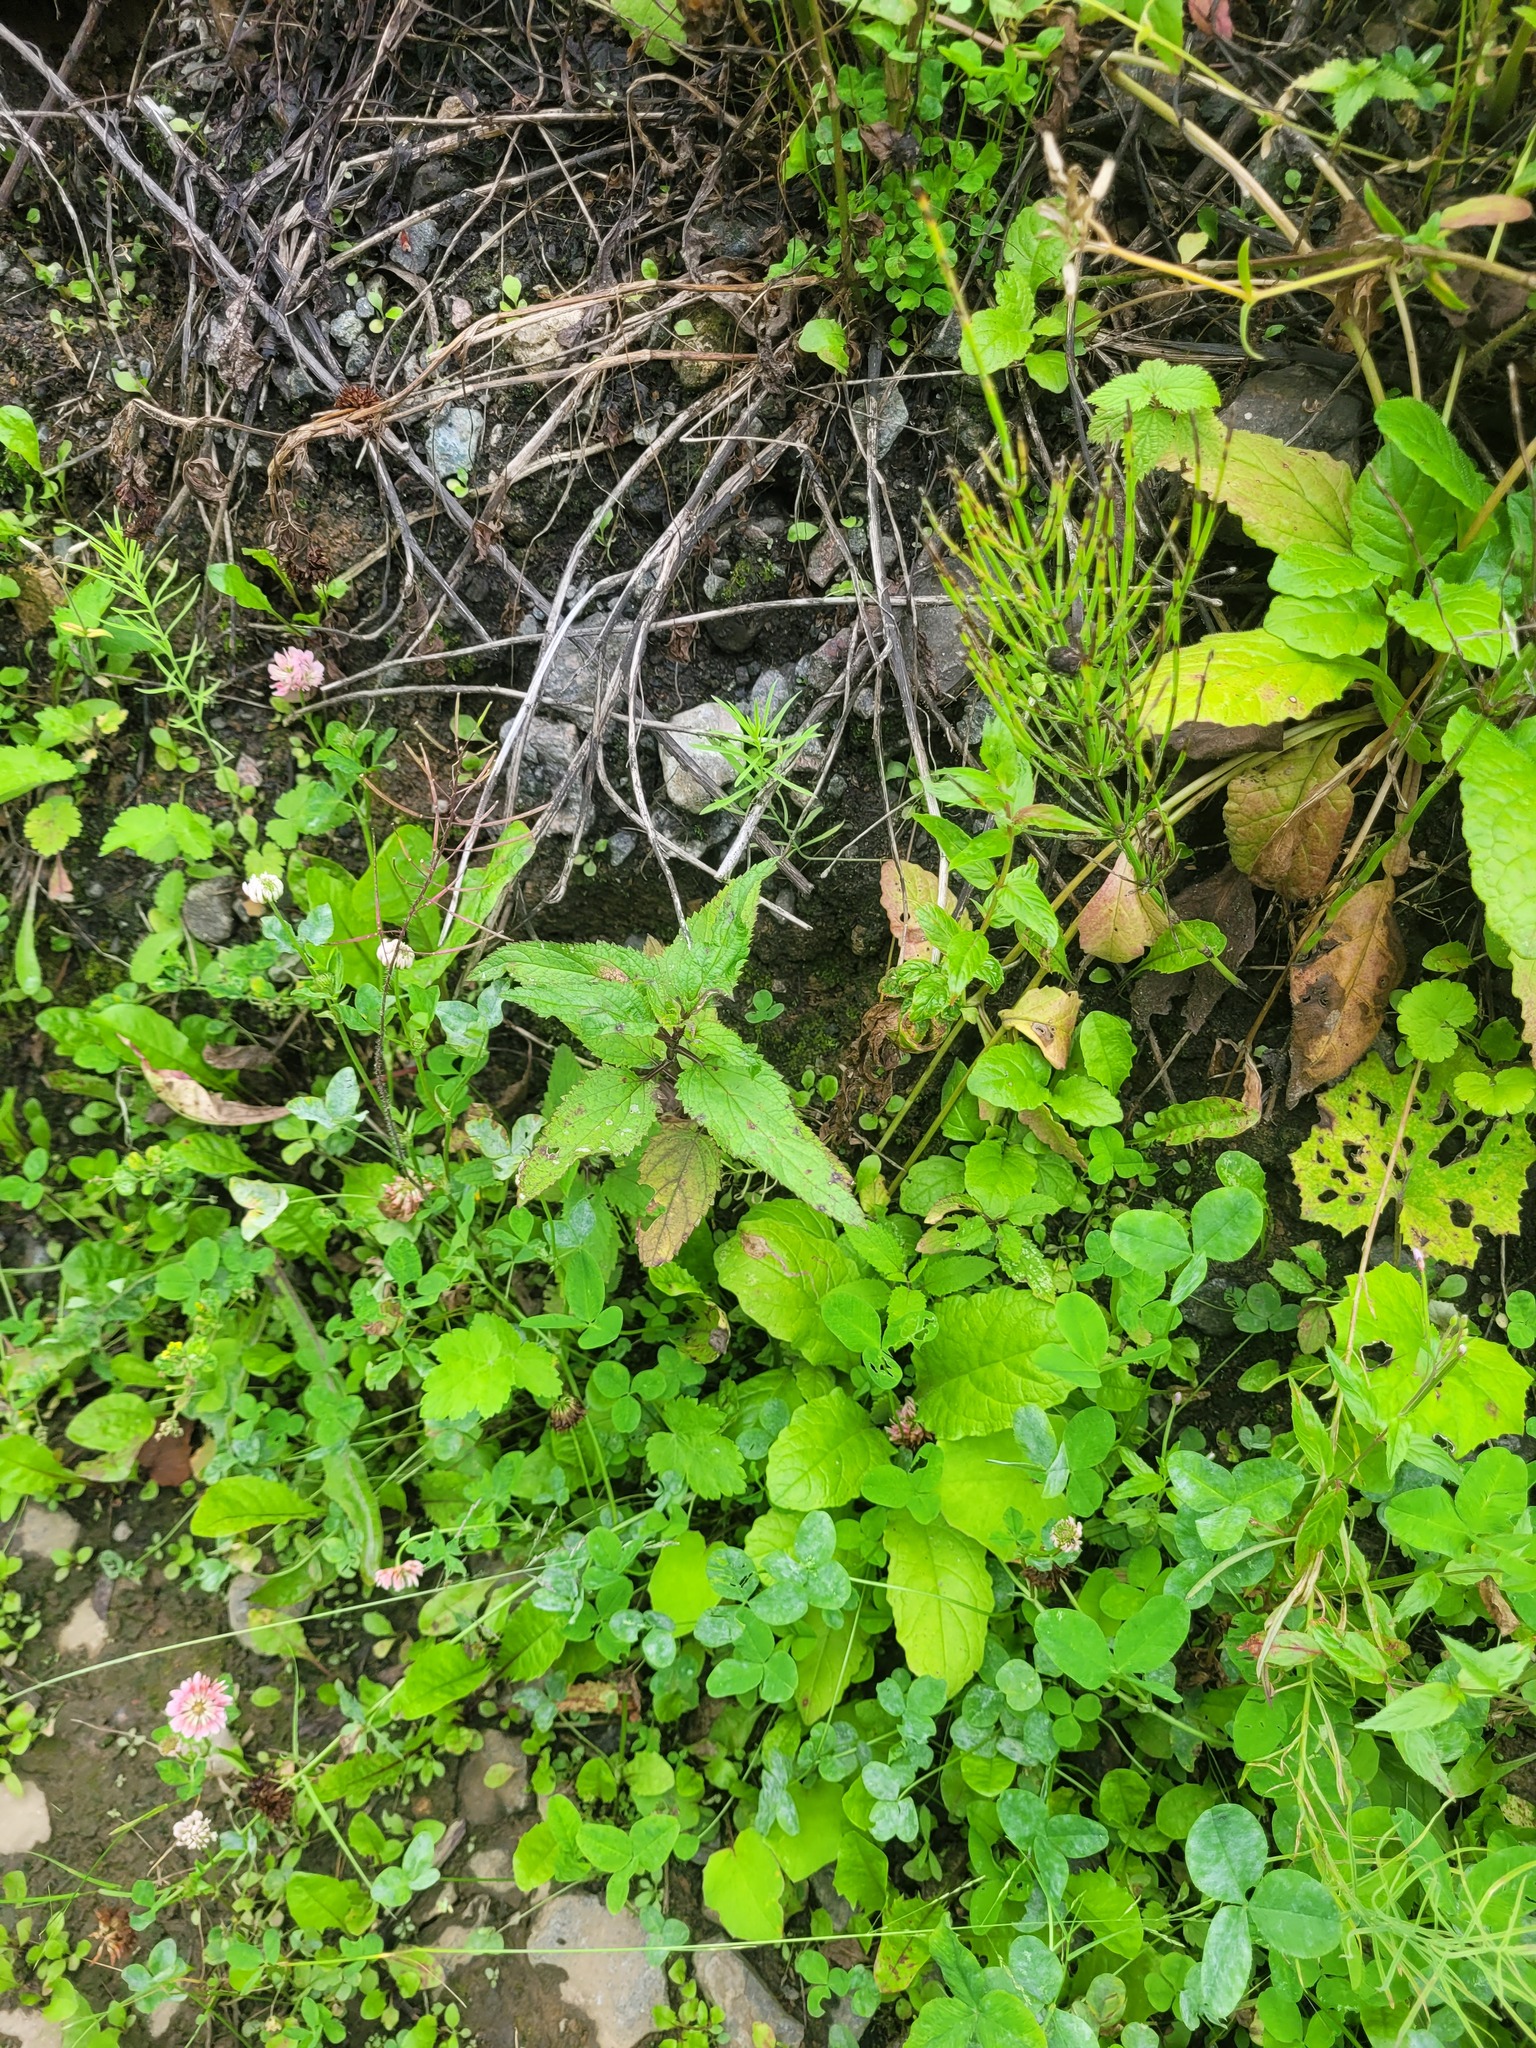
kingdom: Plantae
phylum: Tracheophyta
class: Magnoliopsida
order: Lamiales
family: Scrophulariaceae
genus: Scrophularia
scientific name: Scrophularia nodosa
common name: Common figwort
